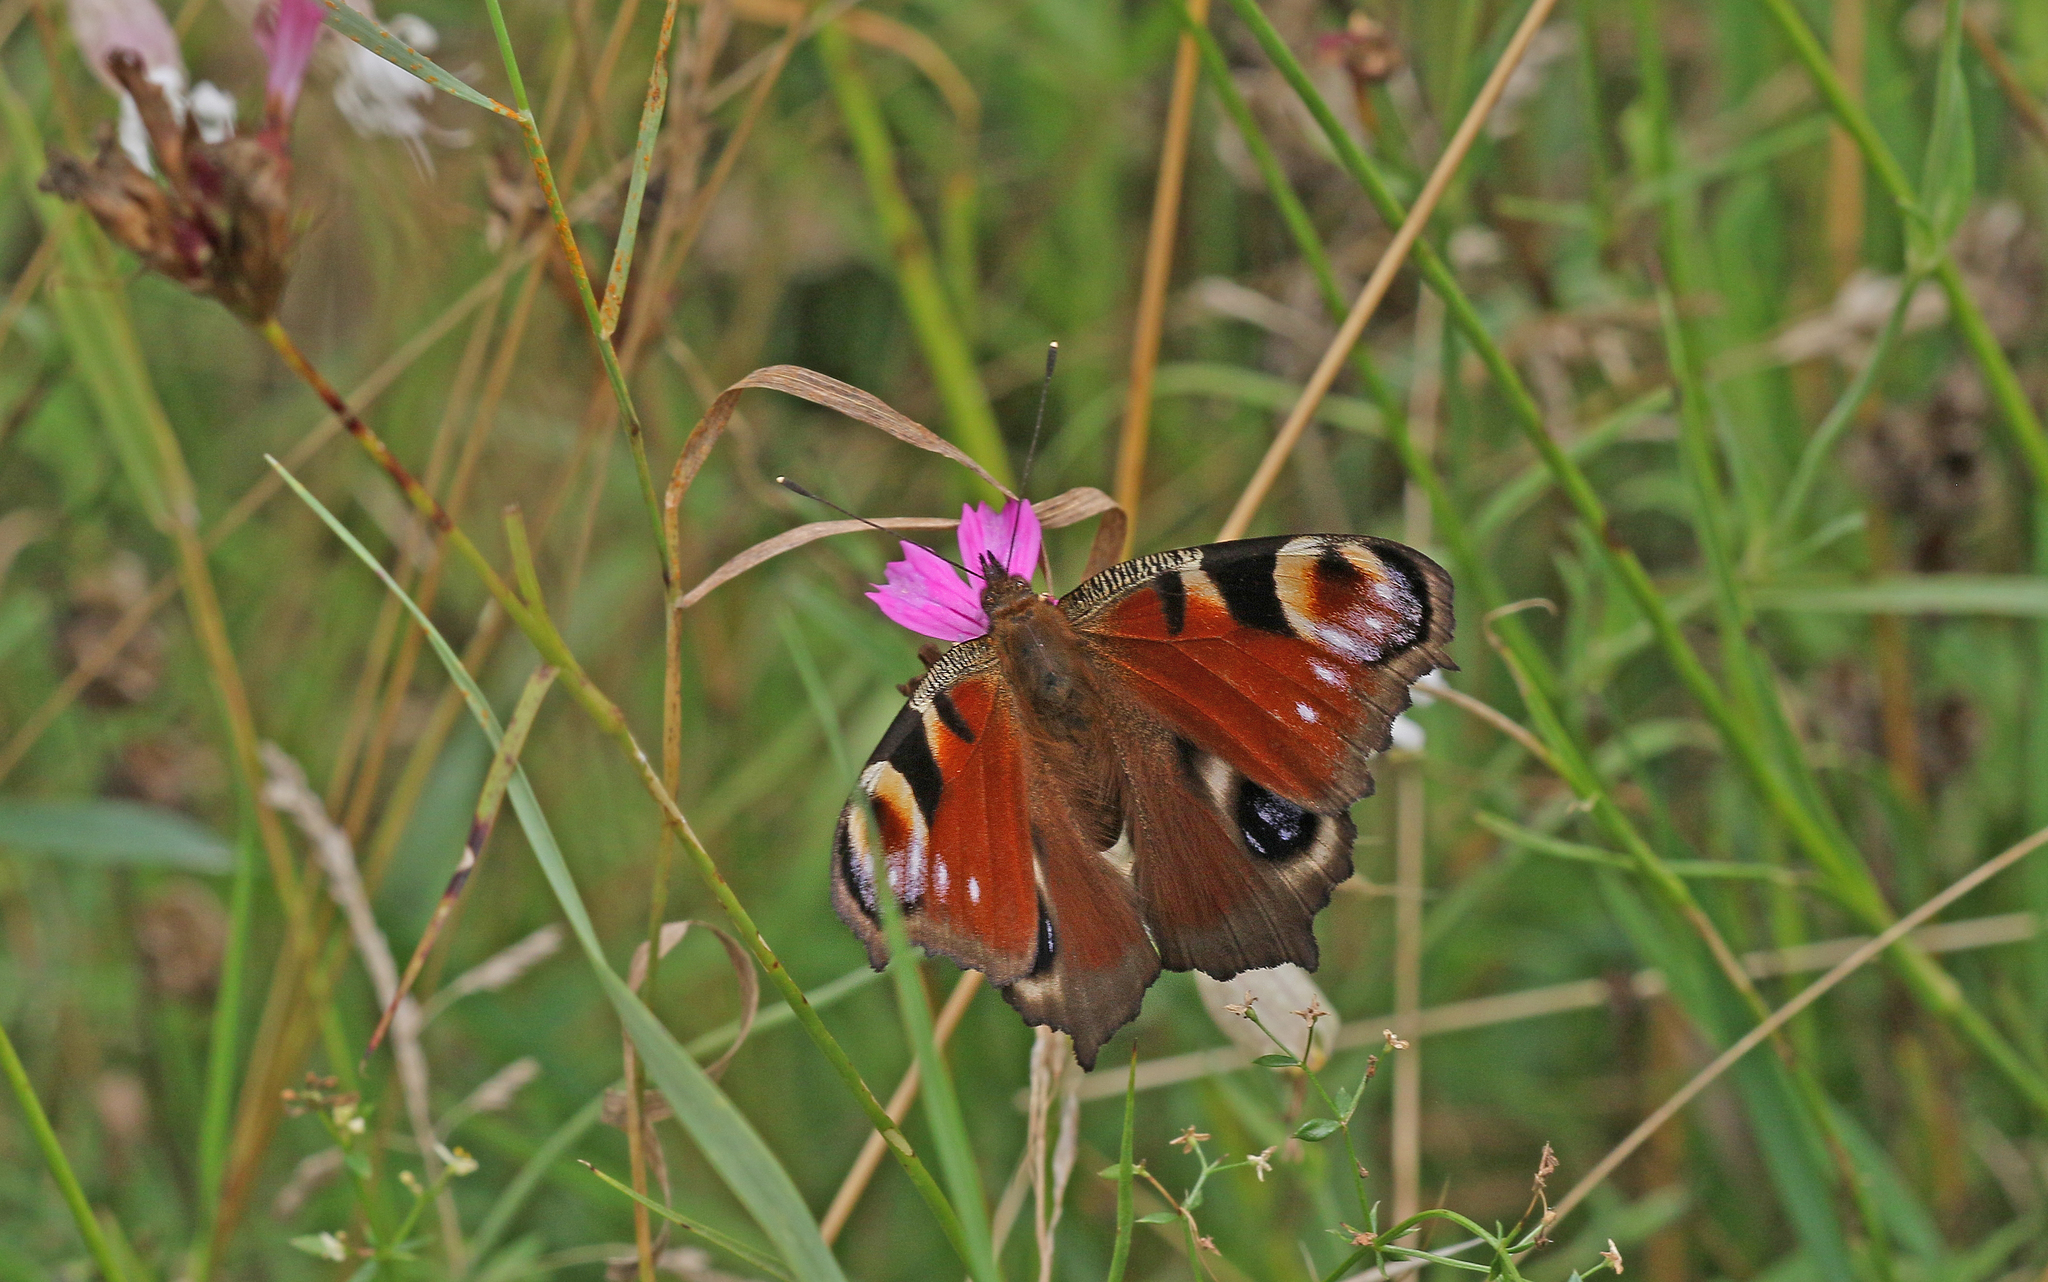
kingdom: Animalia
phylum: Arthropoda
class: Insecta
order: Lepidoptera
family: Nymphalidae
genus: Aglais
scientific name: Aglais io
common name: Peacock
